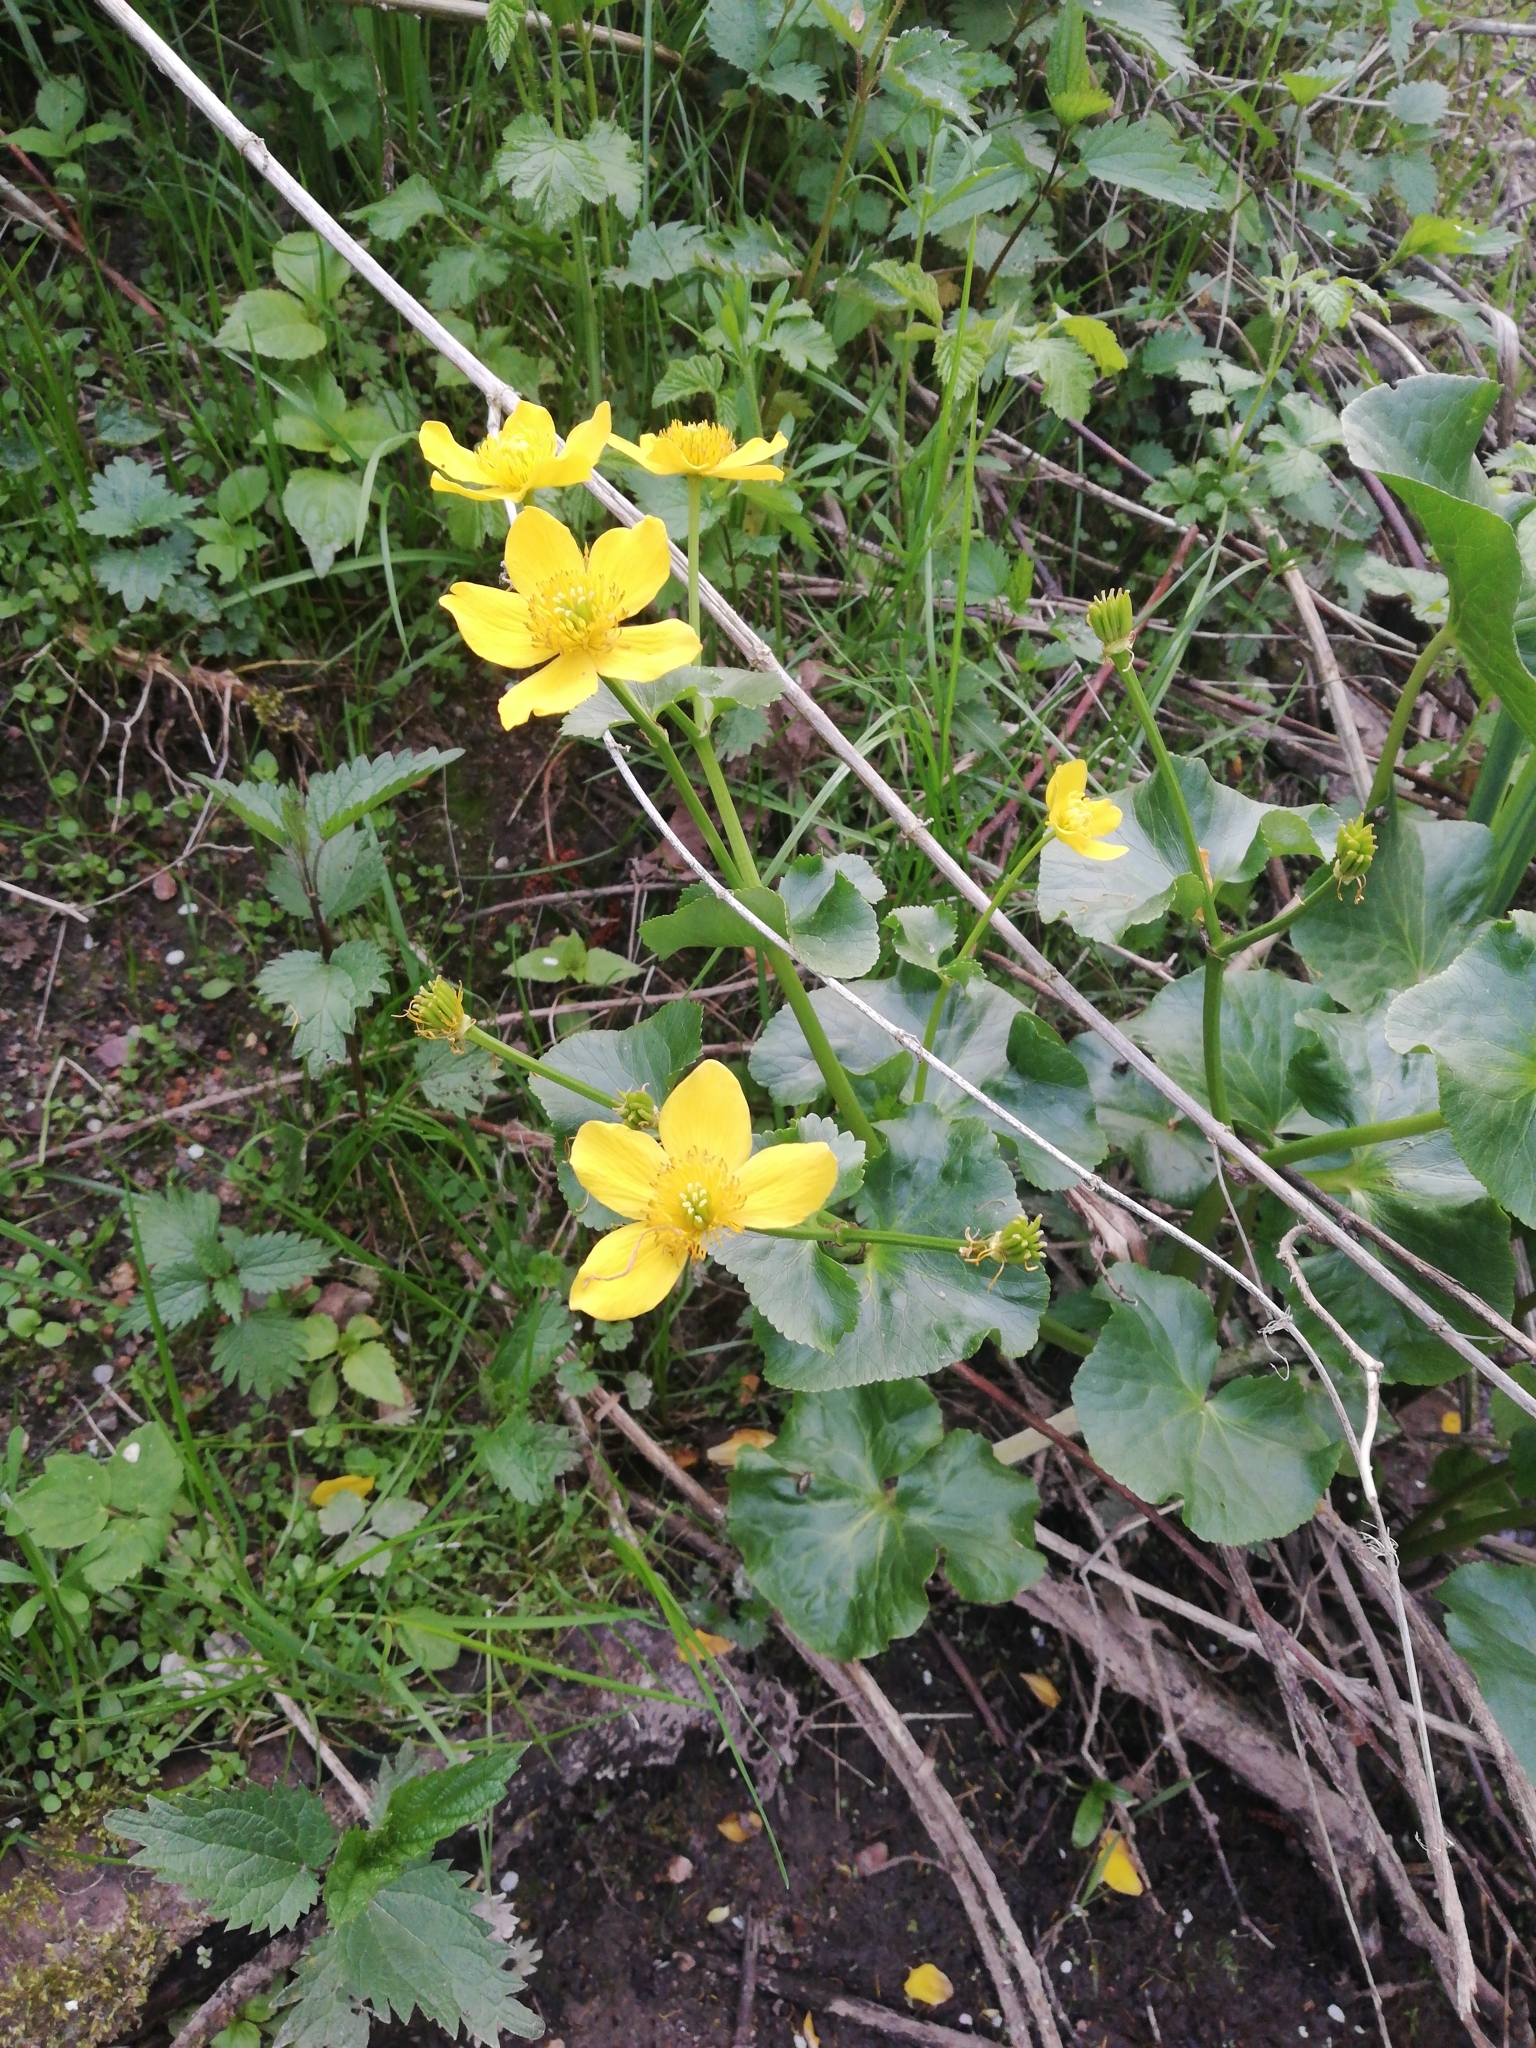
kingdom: Plantae
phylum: Tracheophyta
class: Magnoliopsida
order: Ranunculales
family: Ranunculaceae
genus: Caltha
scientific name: Caltha palustris
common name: Marsh marigold
